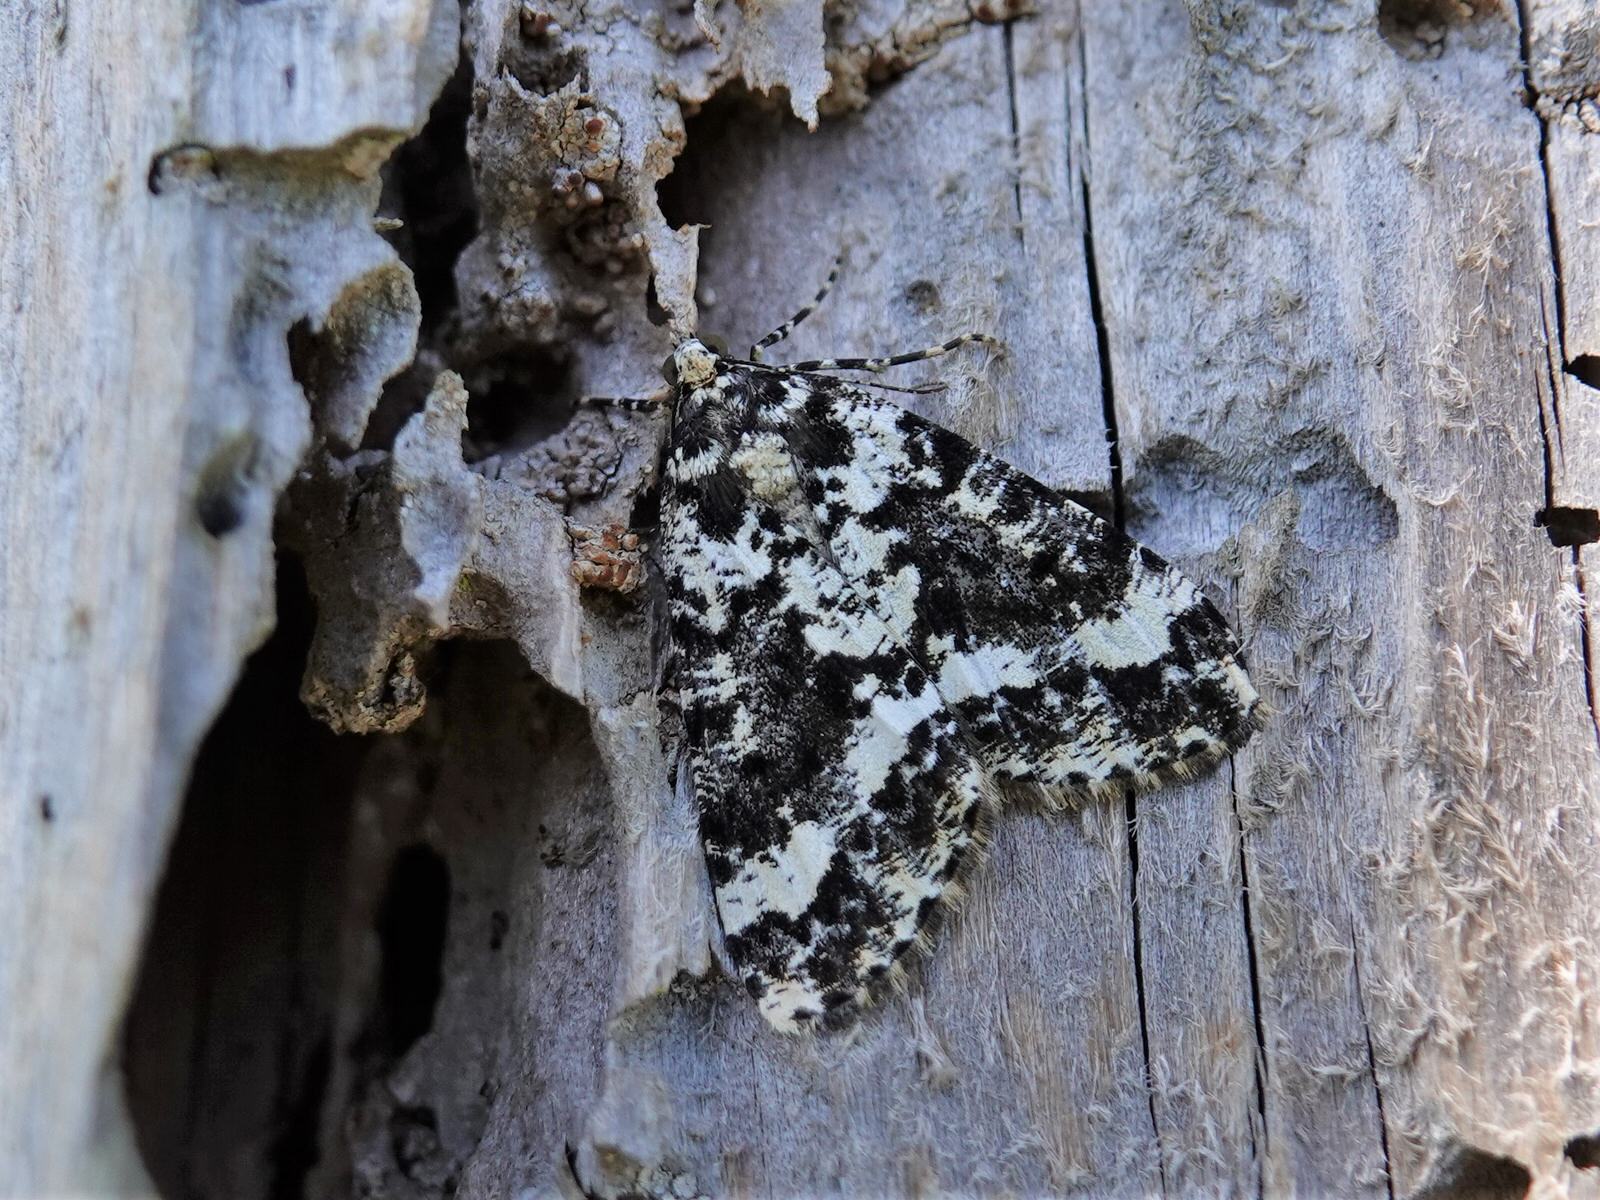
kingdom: Animalia
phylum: Arthropoda
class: Insecta
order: Lepidoptera
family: Geometridae
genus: Pseudocoremia
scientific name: Pseudocoremia leucelaea
